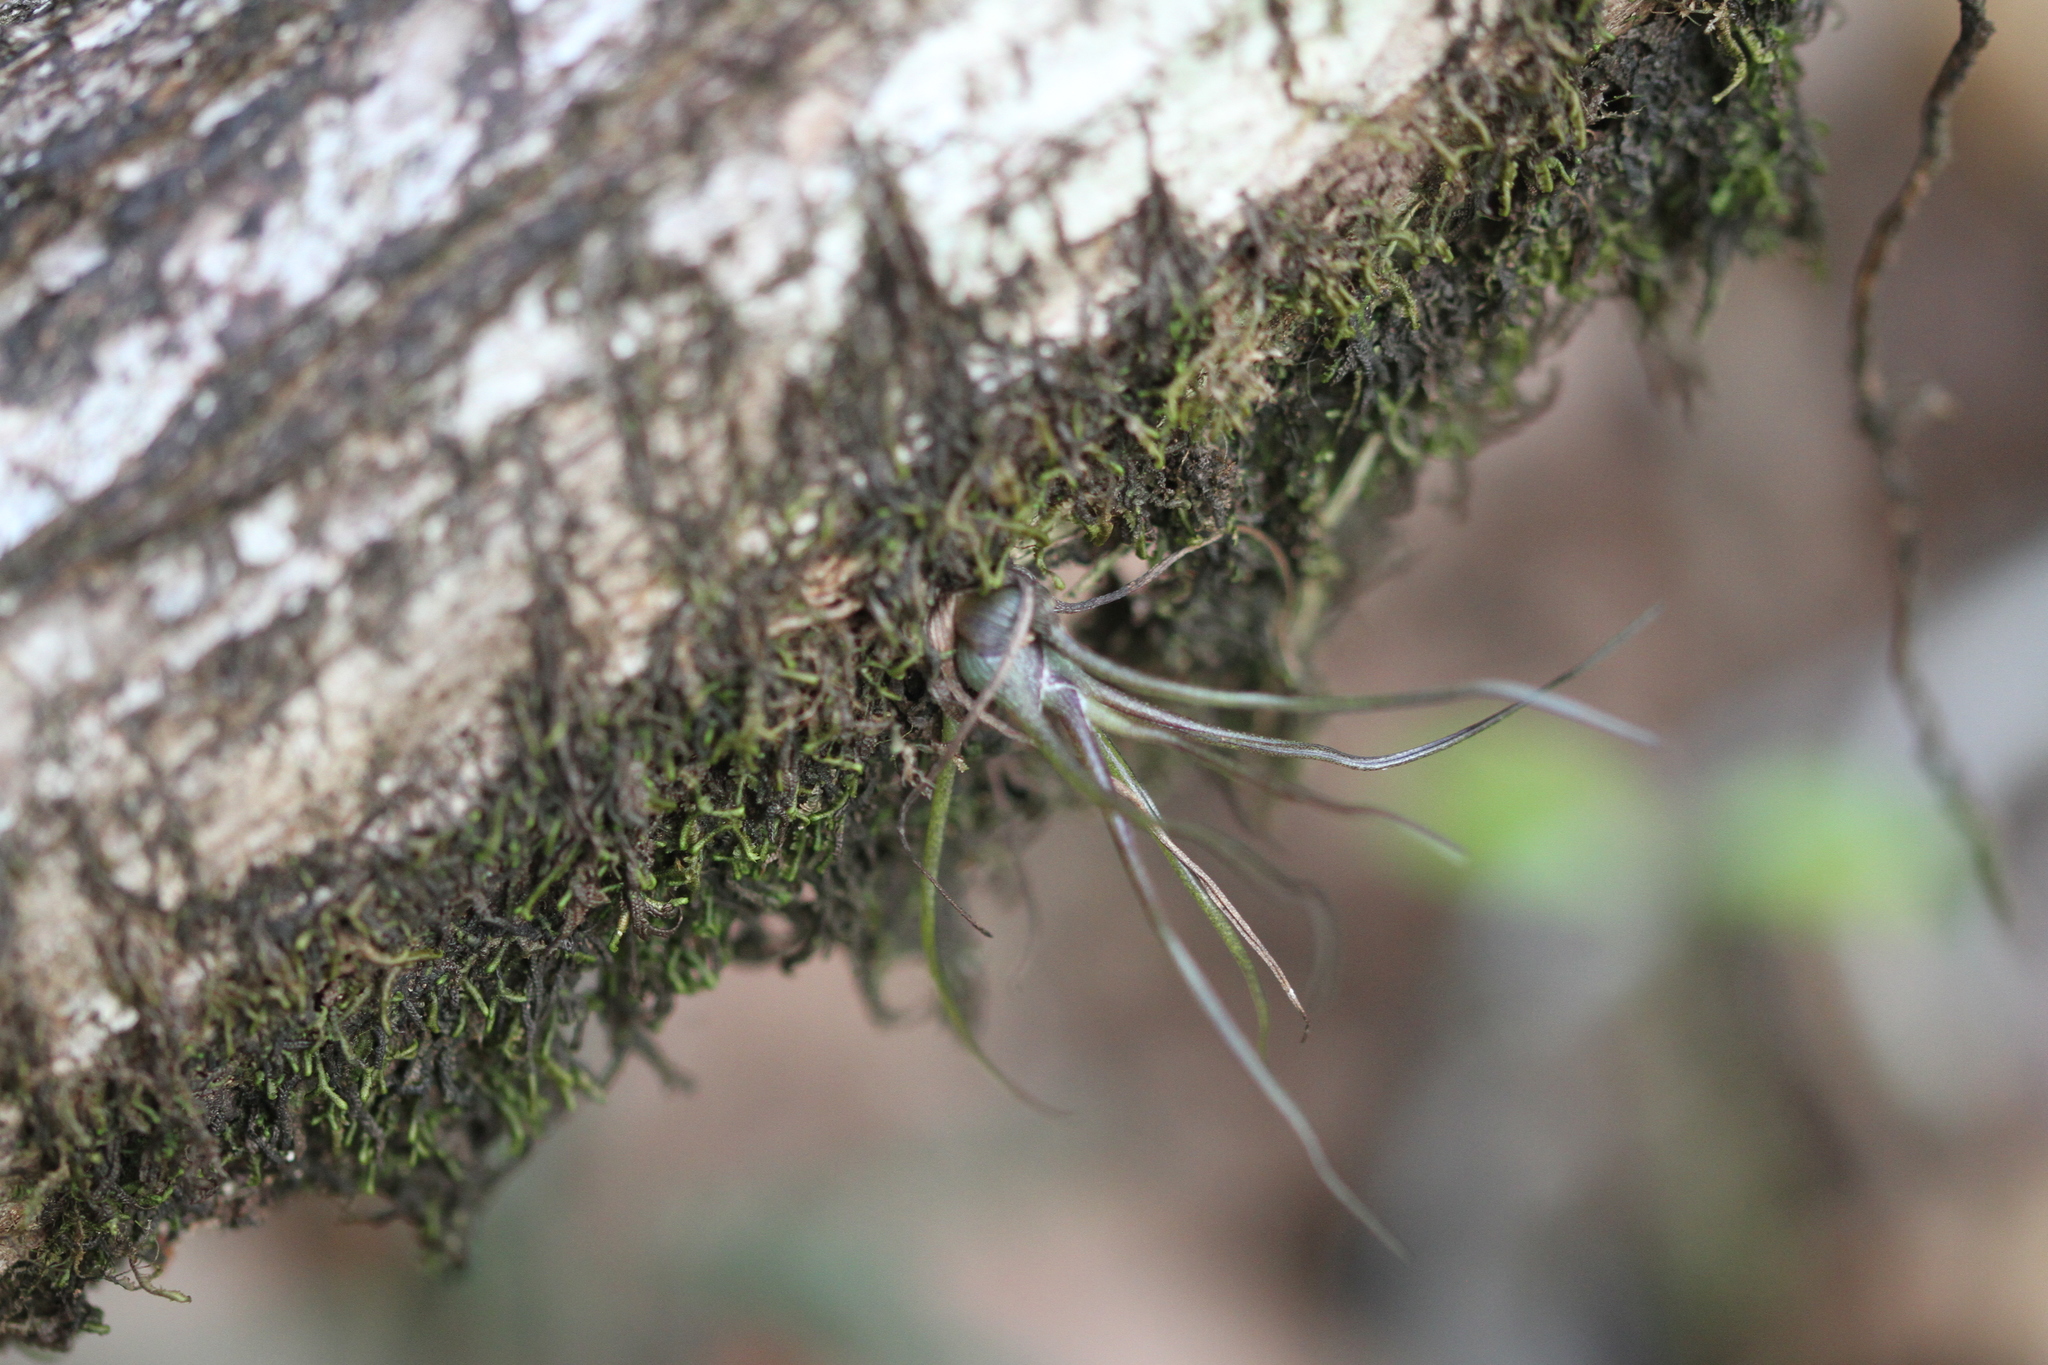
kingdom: Plantae
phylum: Tracheophyta
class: Liliopsida
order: Poales
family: Bromeliaceae
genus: Tillandsia
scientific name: Tillandsia bulbosa
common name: Bulbous airplant
